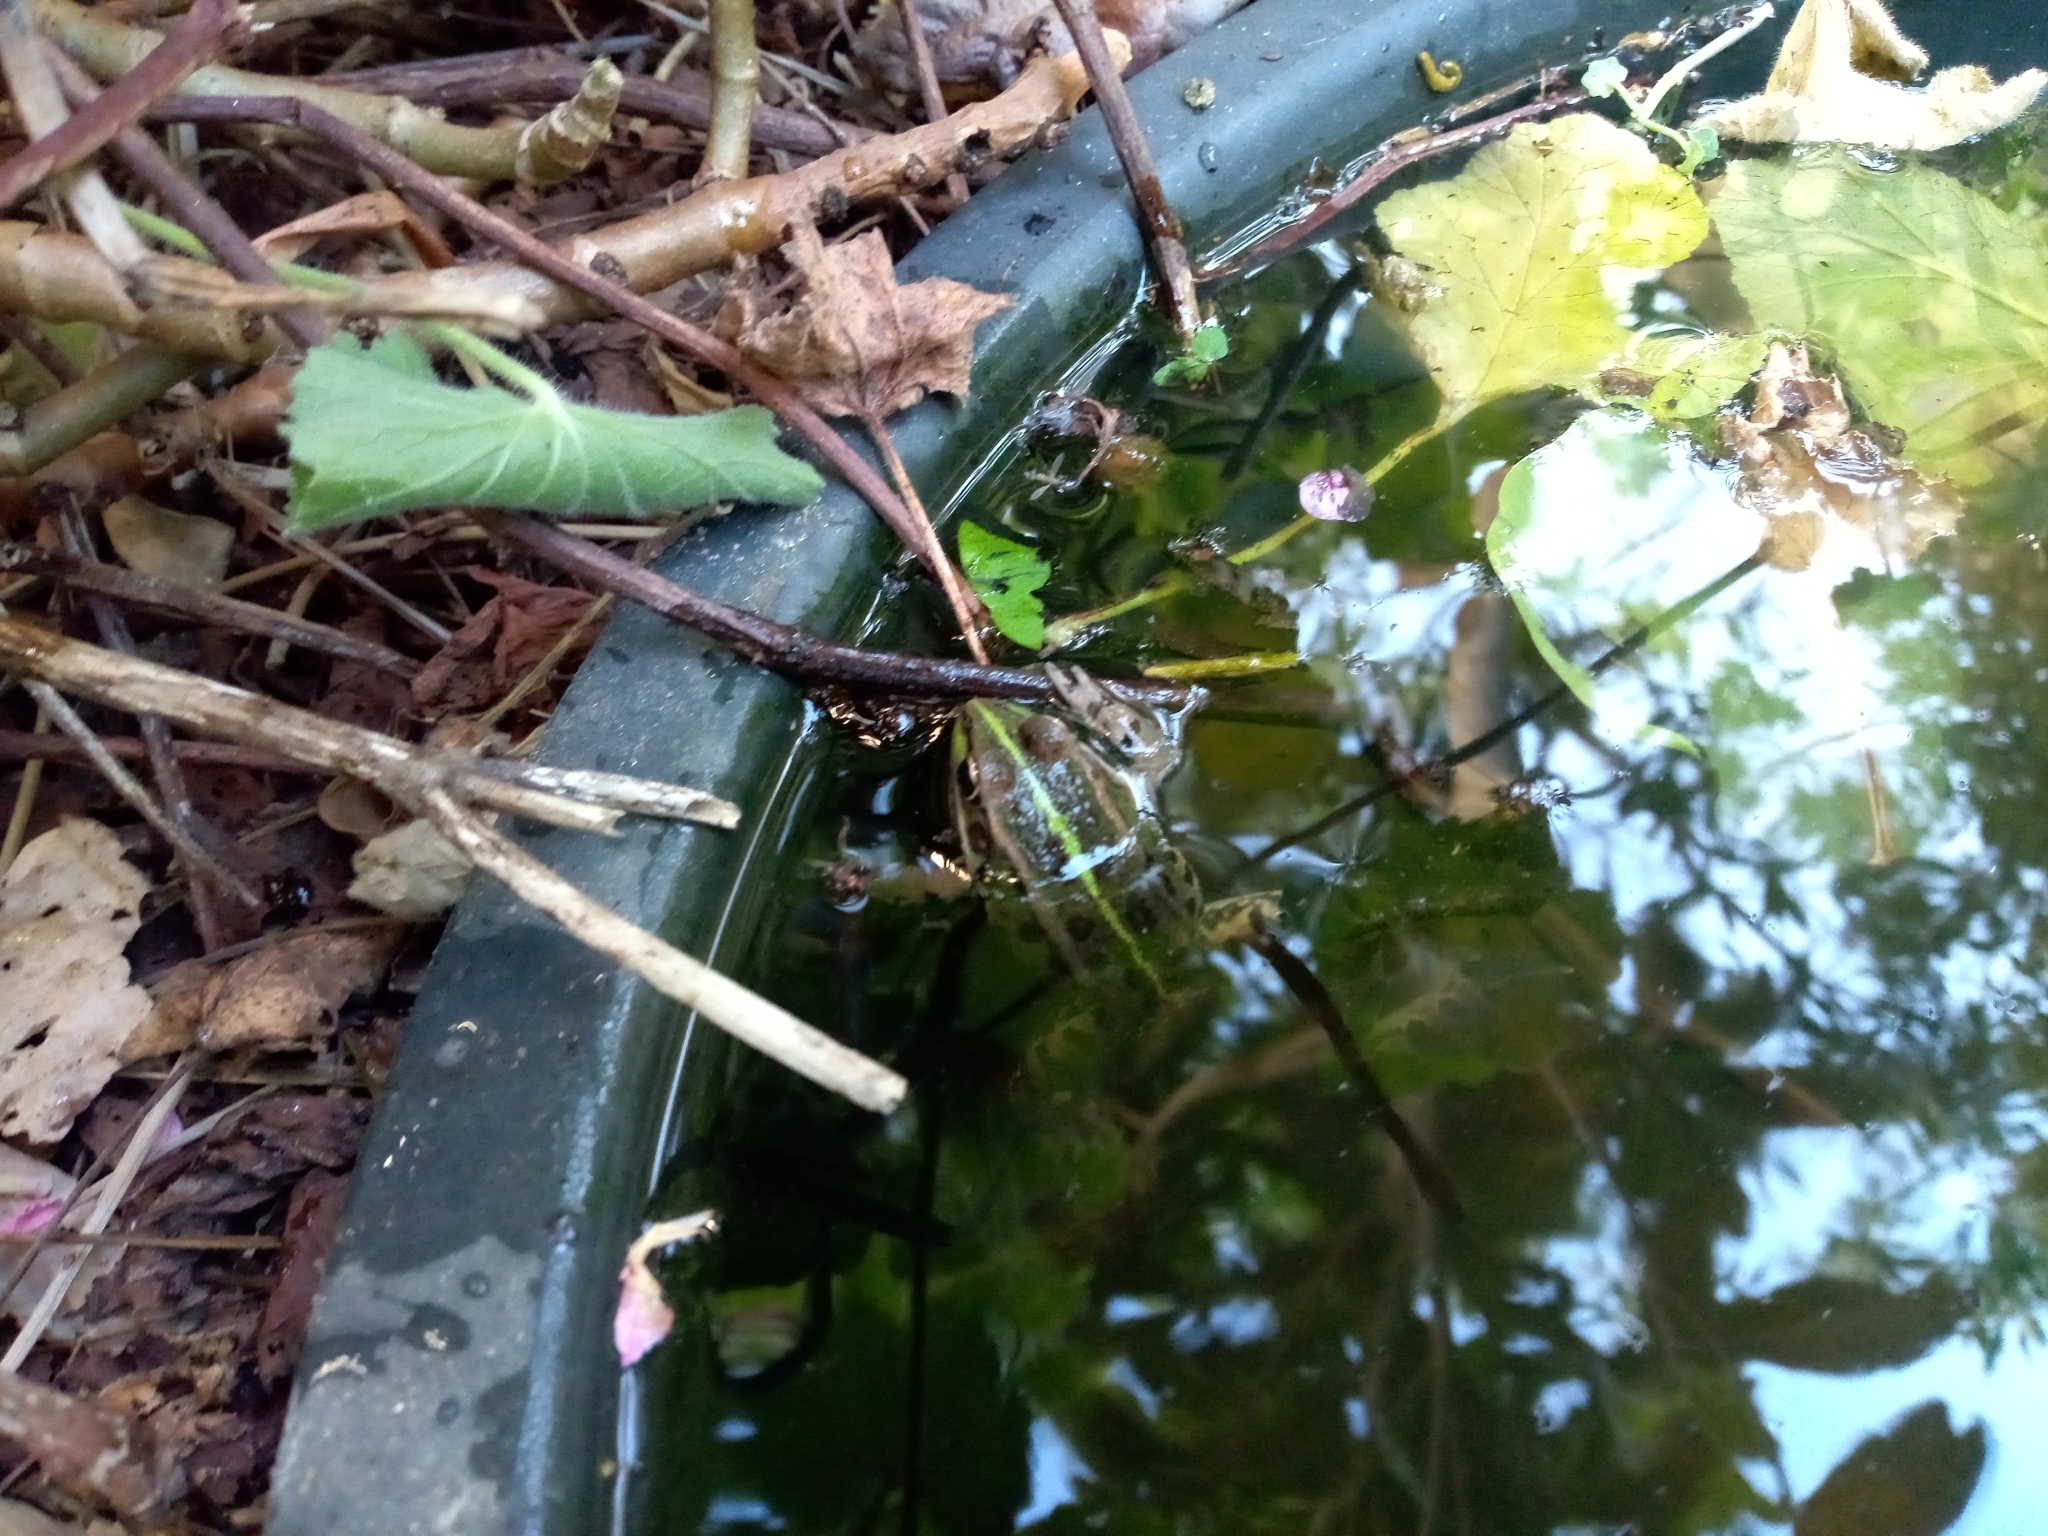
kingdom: Animalia
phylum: Chordata
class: Amphibia
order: Anura
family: Ranidae
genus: Pelophylax
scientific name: Pelophylax perezi
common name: Perez's frog
